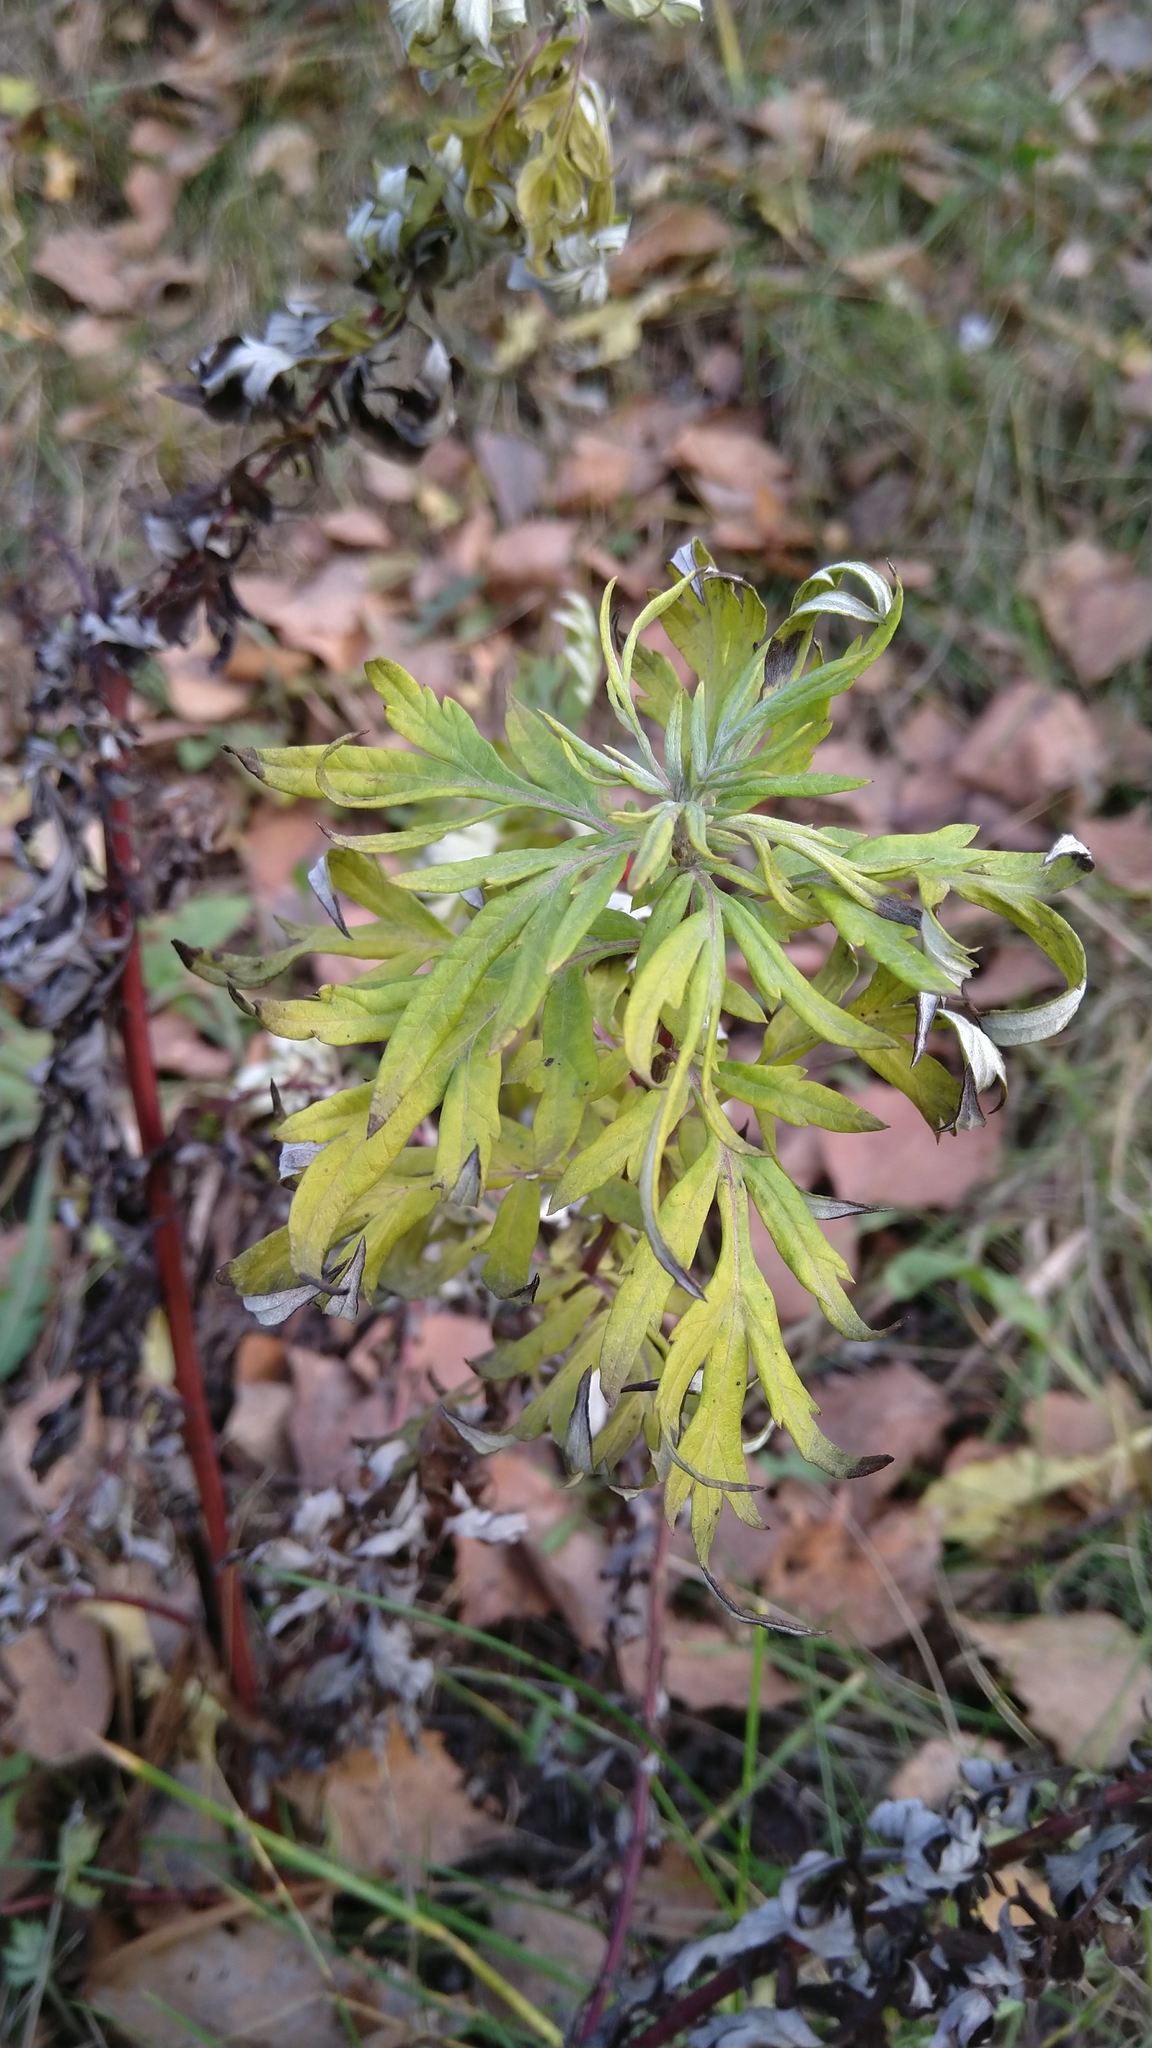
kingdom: Plantae
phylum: Tracheophyta
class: Magnoliopsida
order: Asterales
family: Asteraceae
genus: Artemisia
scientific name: Artemisia vulgaris
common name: Mugwort
